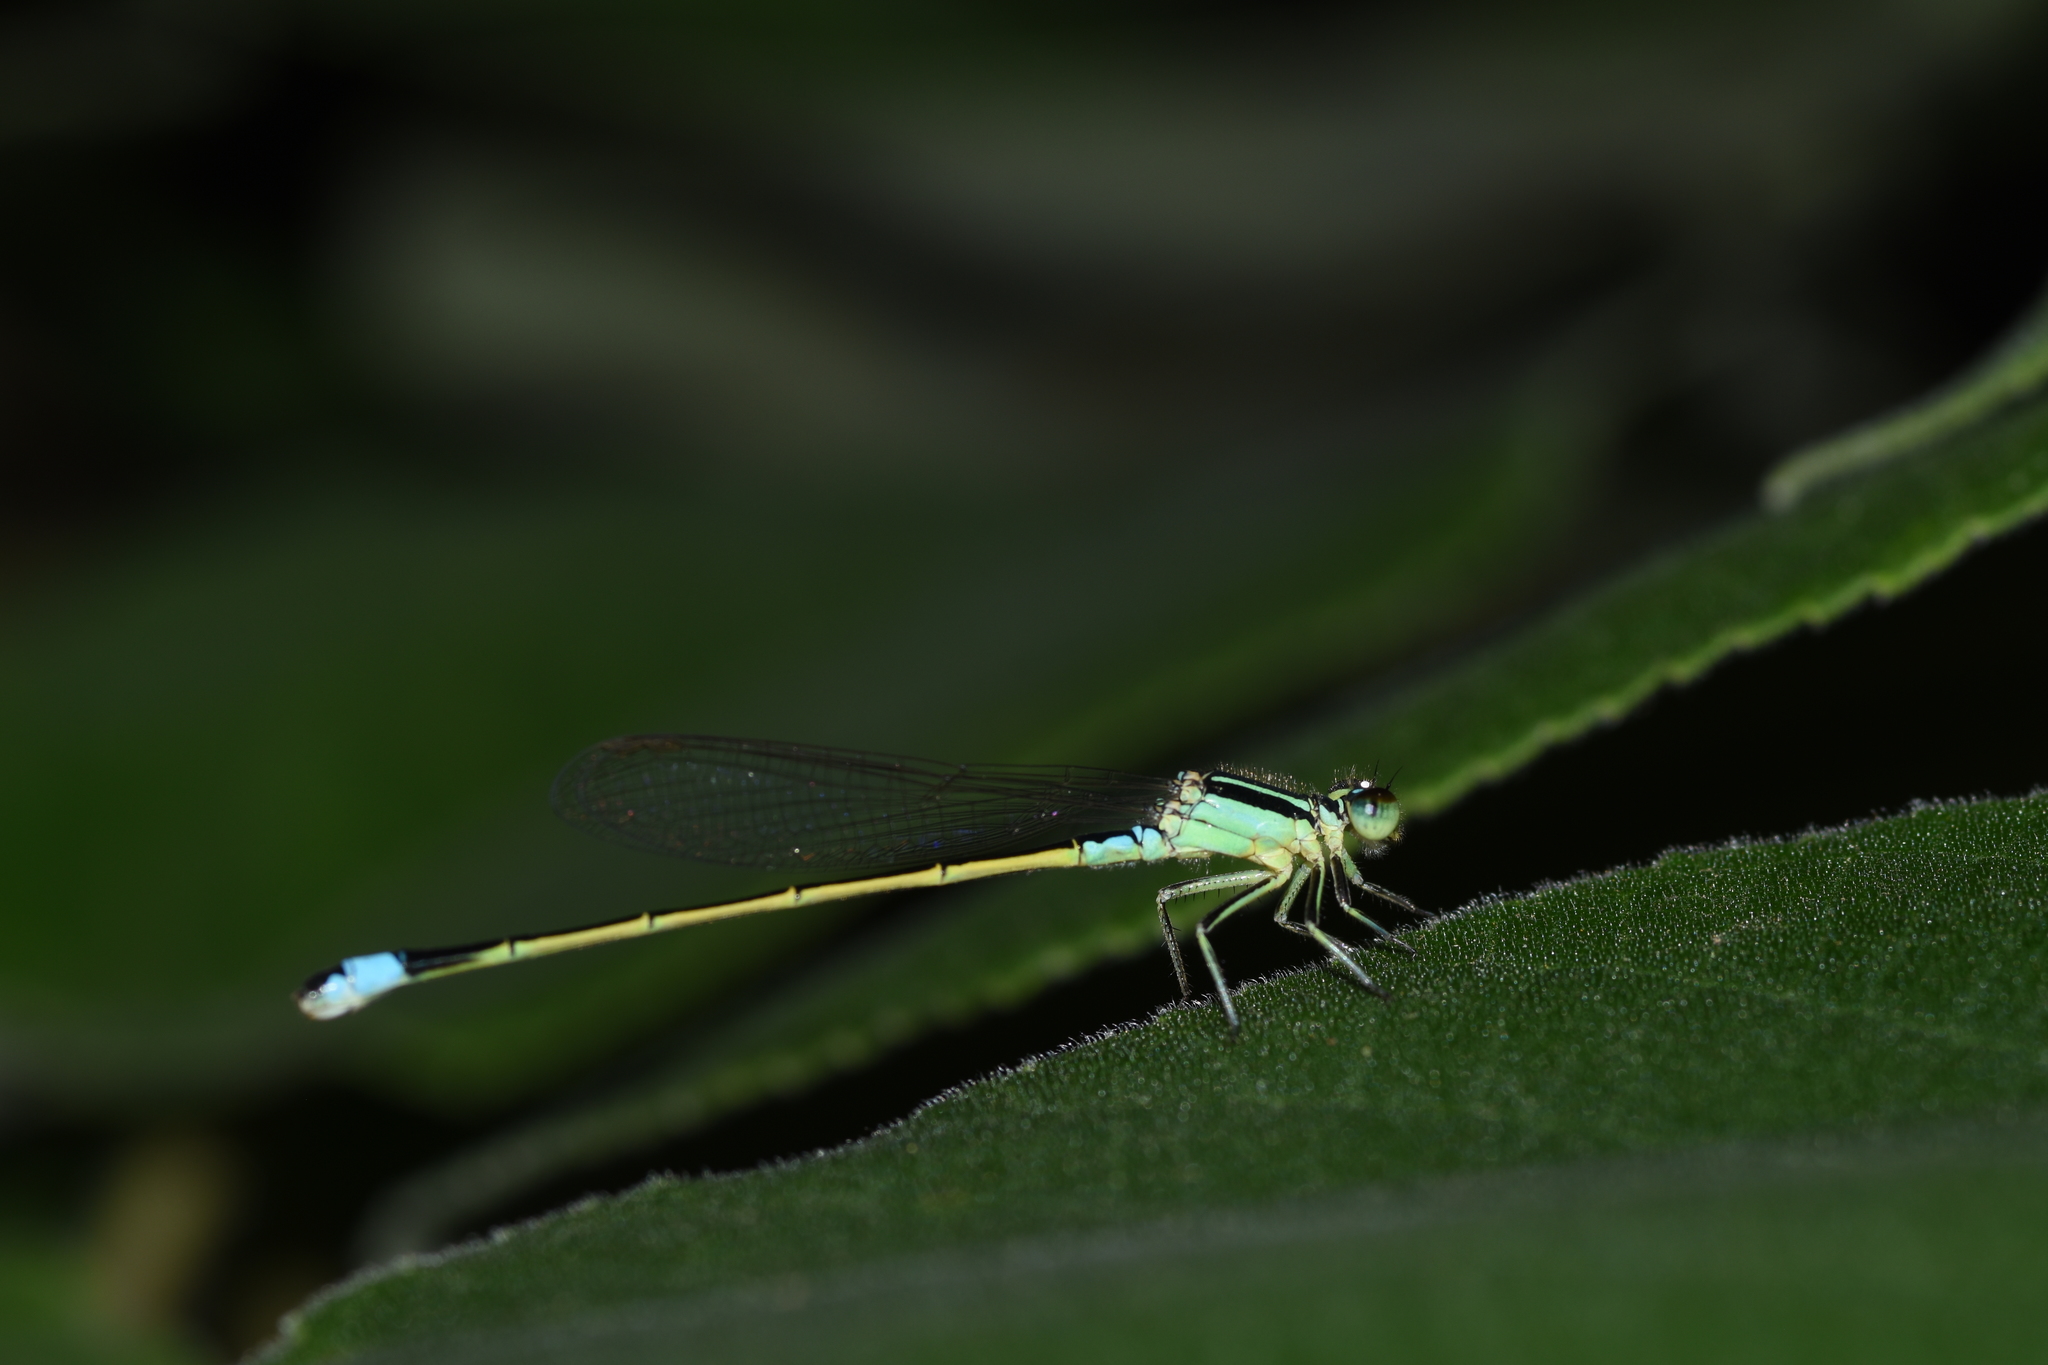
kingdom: Animalia
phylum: Arthropoda
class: Insecta
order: Odonata
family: Coenagrionidae
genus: Ischnura
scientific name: Ischnura senegalensis
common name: Tropical bluetail
